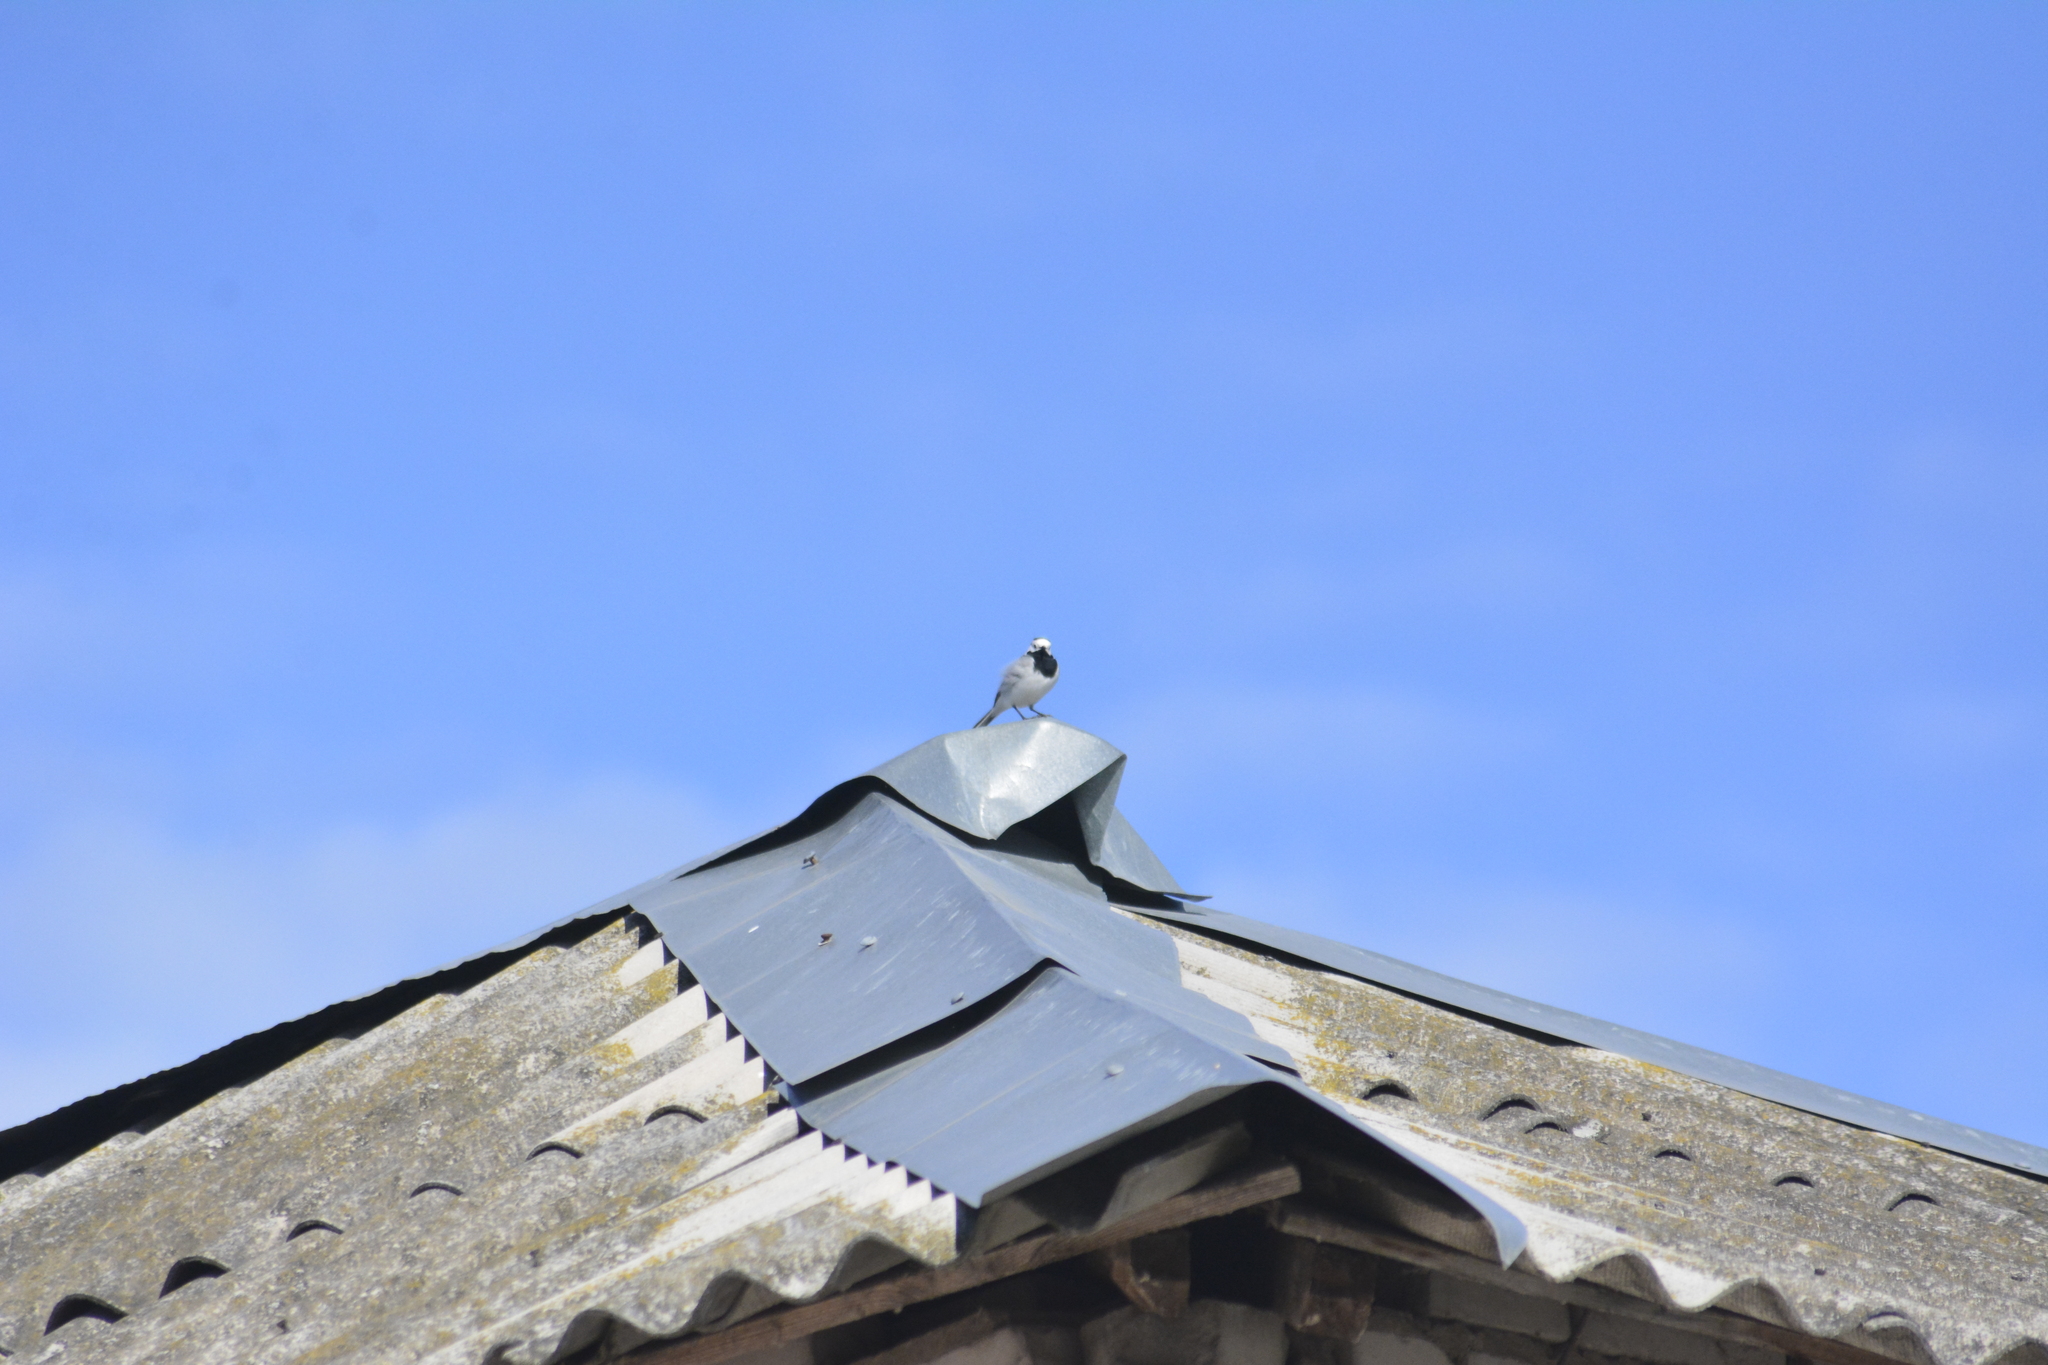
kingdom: Animalia
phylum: Chordata
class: Aves
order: Passeriformes
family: Motacillidae
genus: Motacilla
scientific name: Motacilla alba
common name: White wagtail
